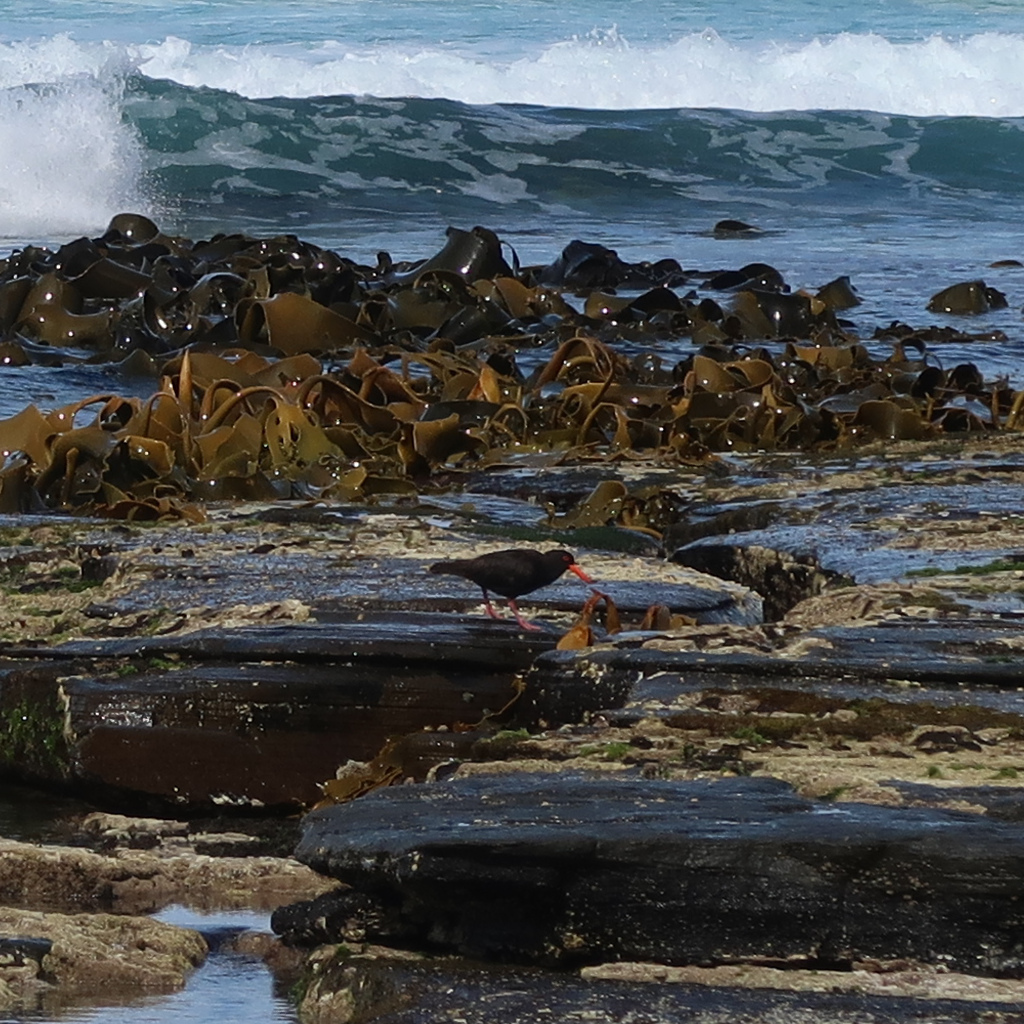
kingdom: Animalia
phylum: Chordata
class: Aves
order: Charadriiformes
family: Haematopodidae
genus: Haematopus
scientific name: Haematopus fuliginosus
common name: Sooty oystercatcher
